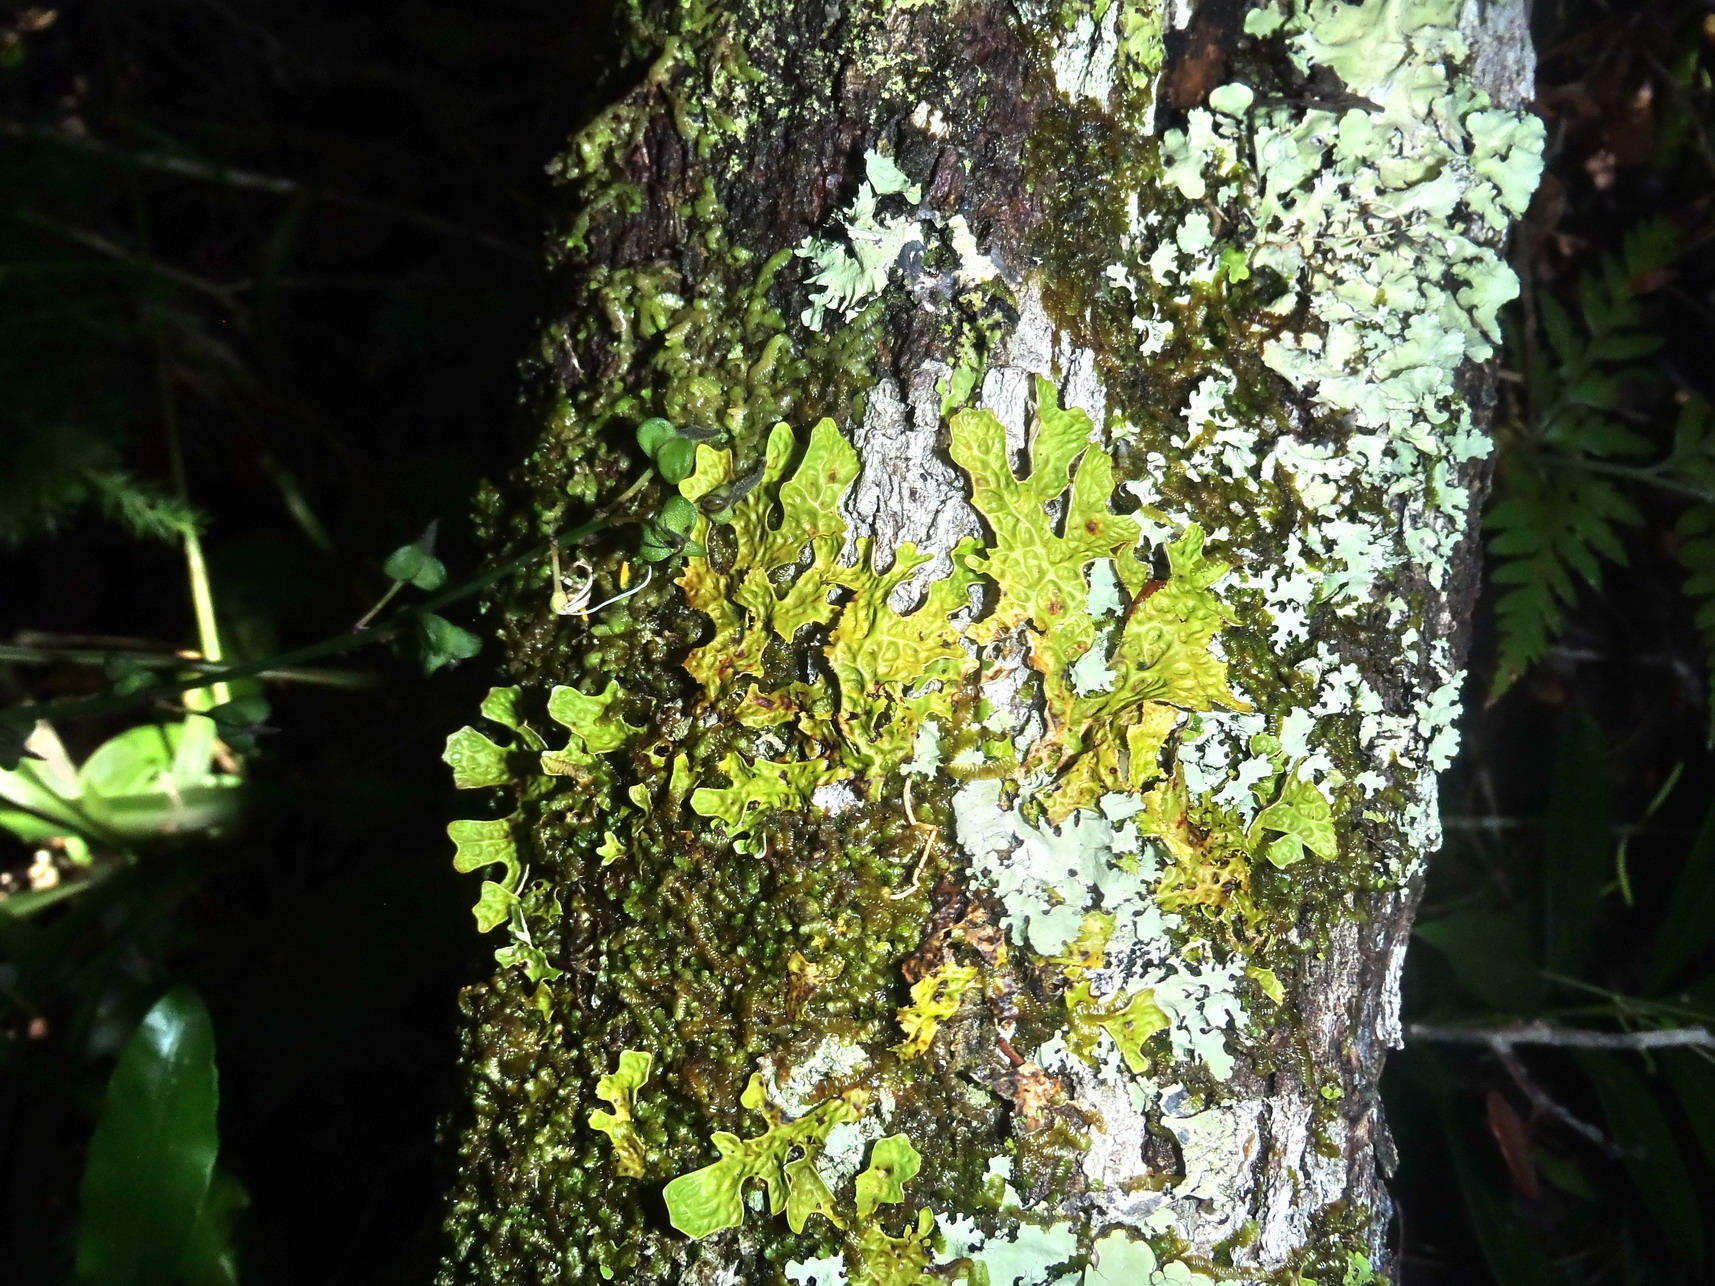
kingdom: Fungi
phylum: Ascomycota
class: Lecanoromycetes
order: Peltigerales
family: Lobariaceae
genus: Lobaria
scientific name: Lobaria pulmonaria
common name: Lungwort
